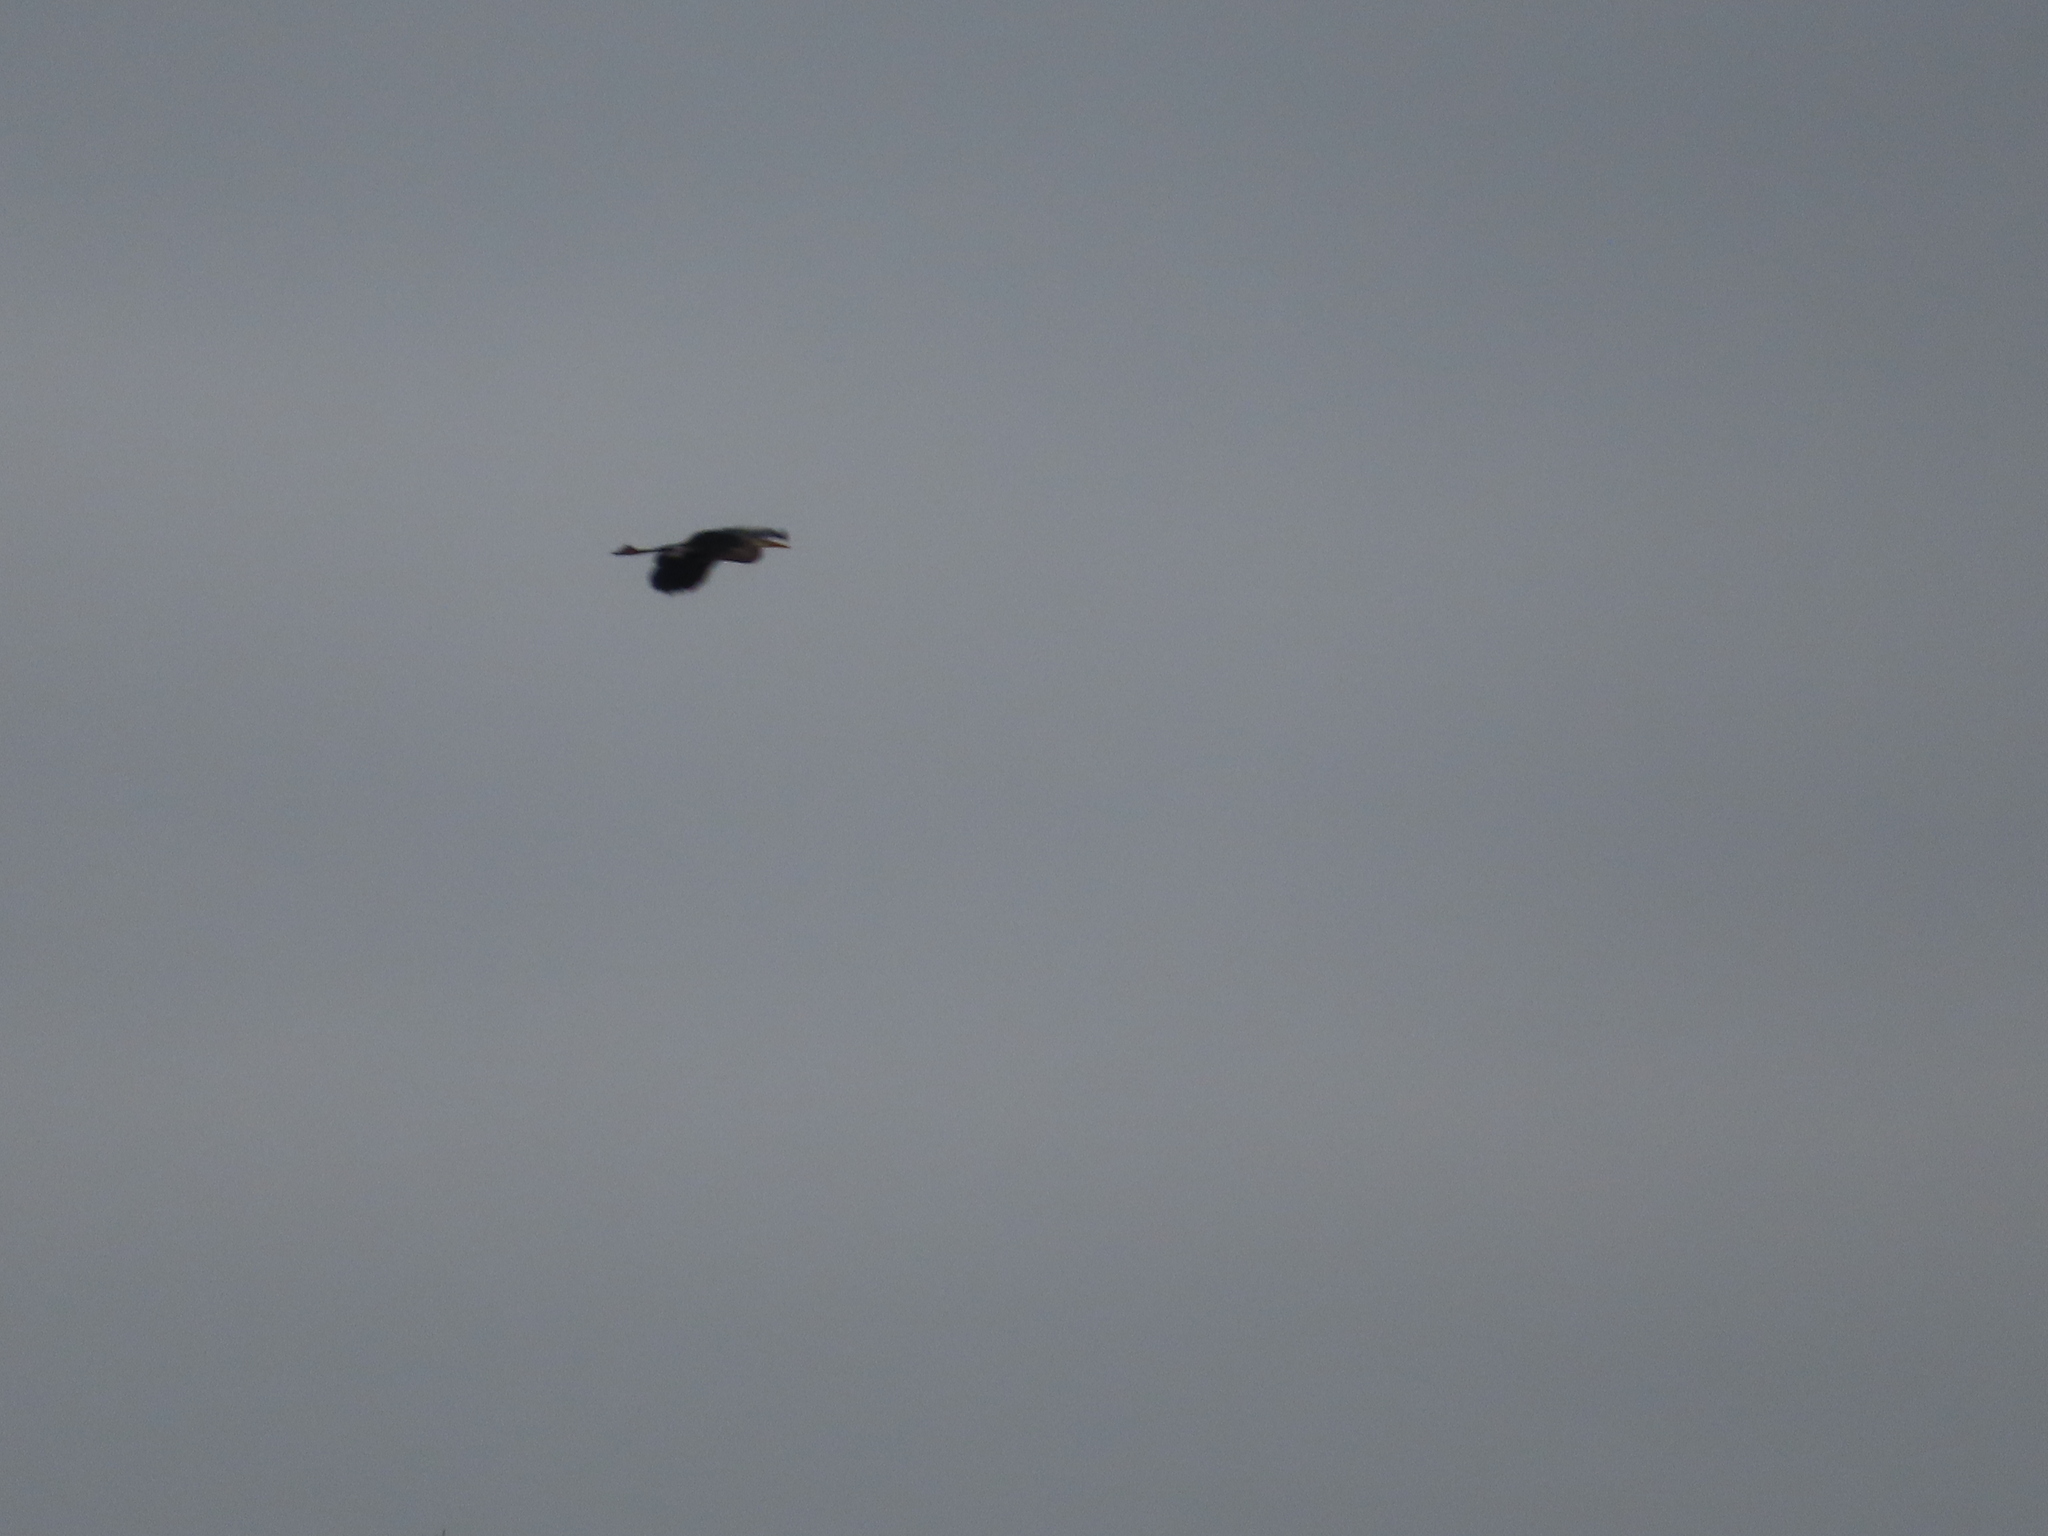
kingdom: Animalia
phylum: Chordata
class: Aves
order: Pelecaniformes
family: Ardeidae
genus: Ardea
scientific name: Ardea herodias
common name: Great blue heron
